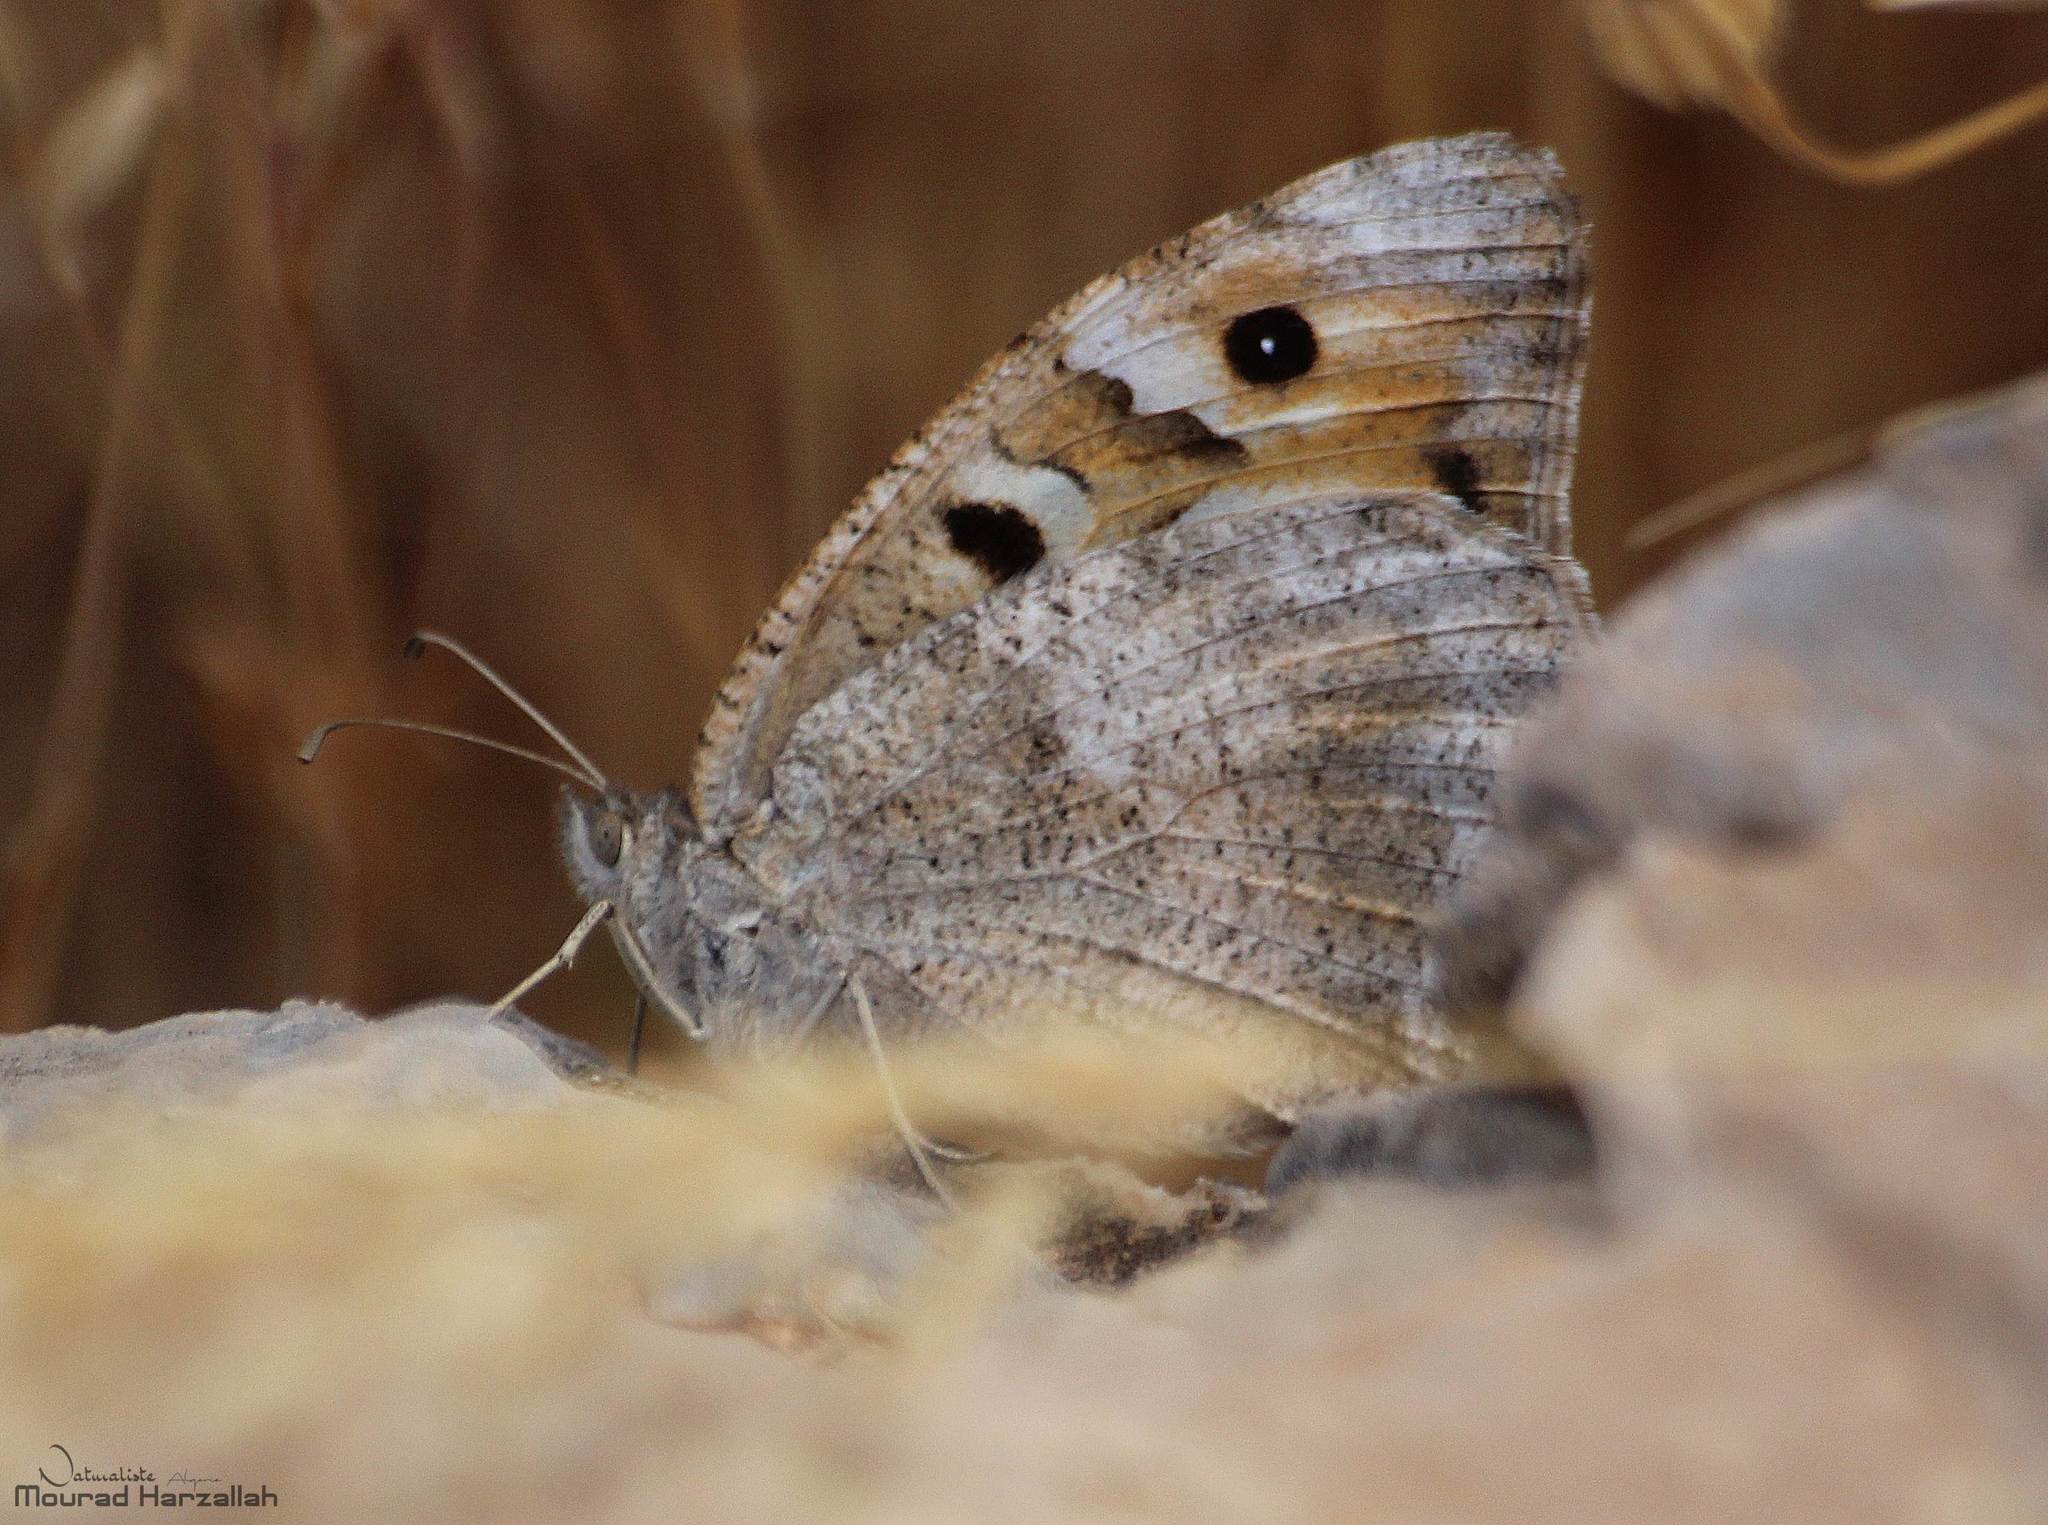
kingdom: Animalia
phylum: Arthropoda
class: Insecta
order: Lepidoptera
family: Nymphalidae
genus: Satyrus
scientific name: Satyrus briseis
